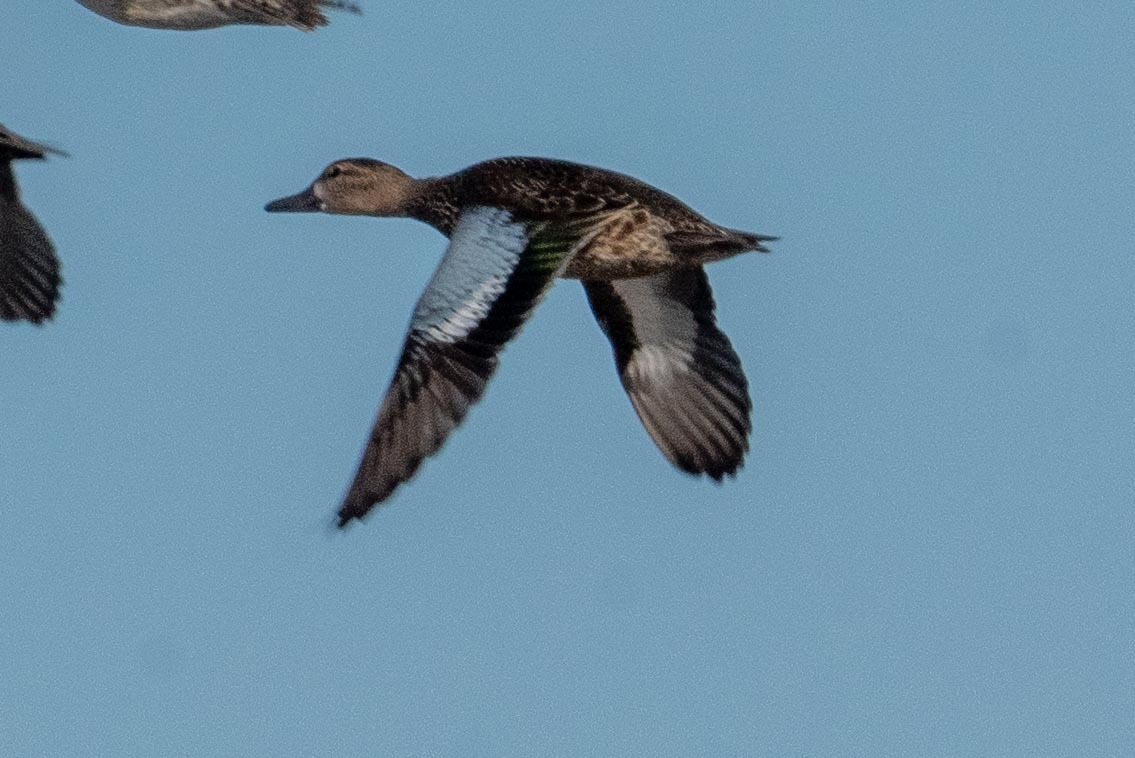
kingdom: Animalia
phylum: Chordata
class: Aves
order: Anseriformes
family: Anatidae
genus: Spatula
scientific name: Spatula discors
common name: Blue-winged teal
